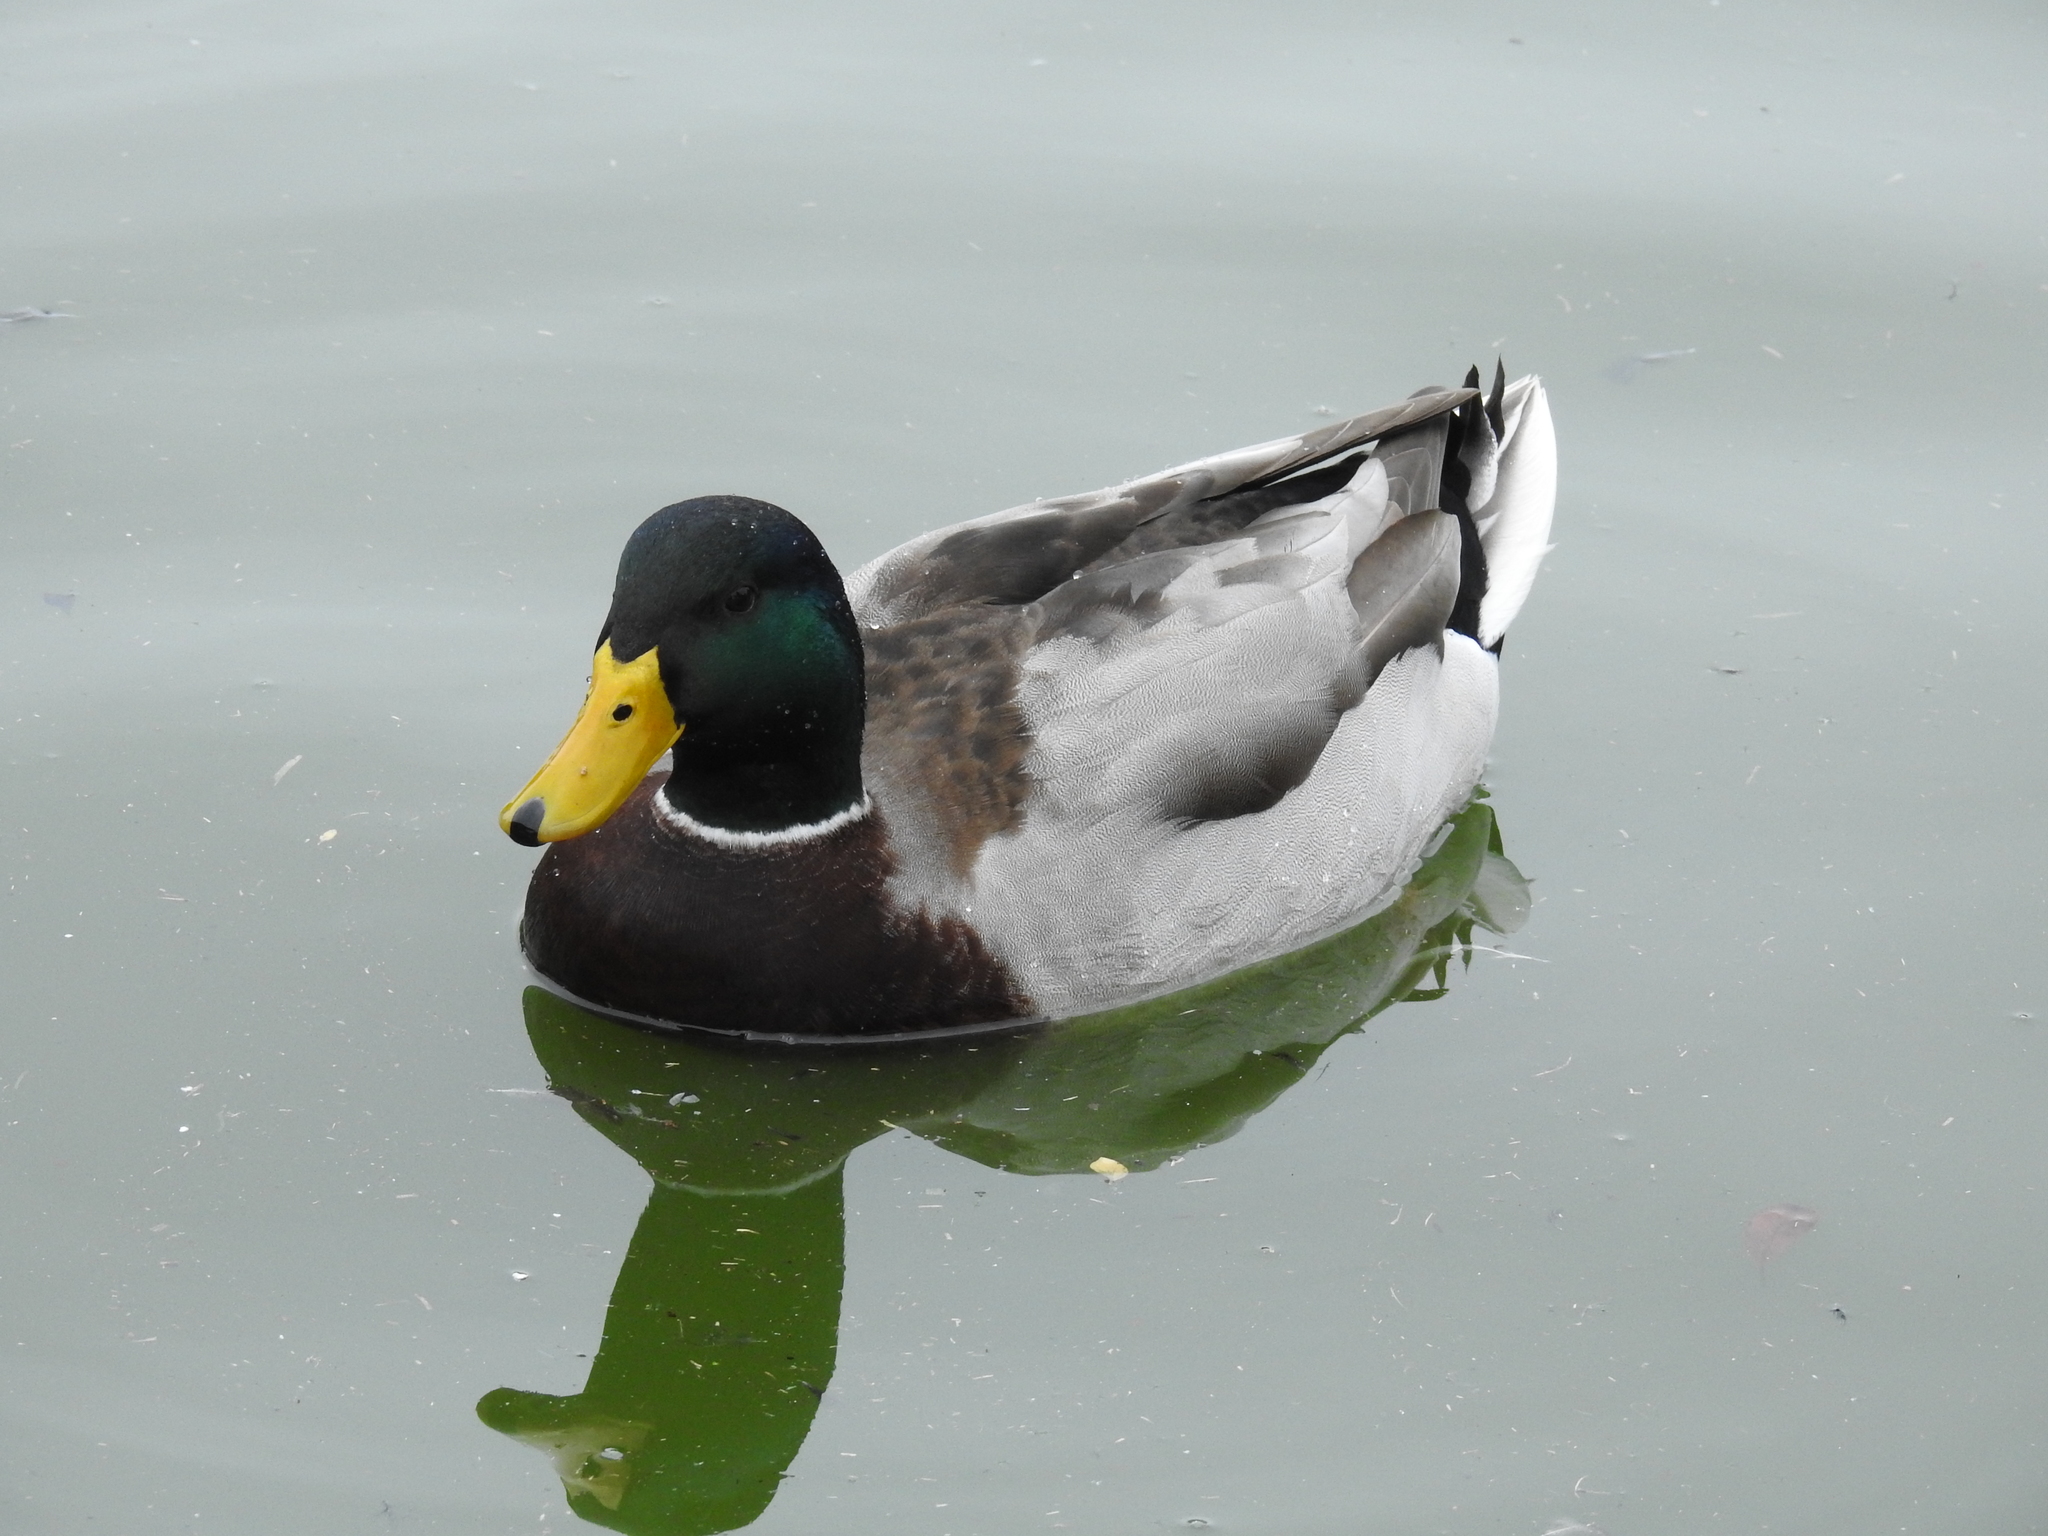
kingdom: Animalia
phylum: Chordata
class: Aves
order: Anseriformes
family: Anatidae
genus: Anas
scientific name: Anas platyrhynchos
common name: Mallard
